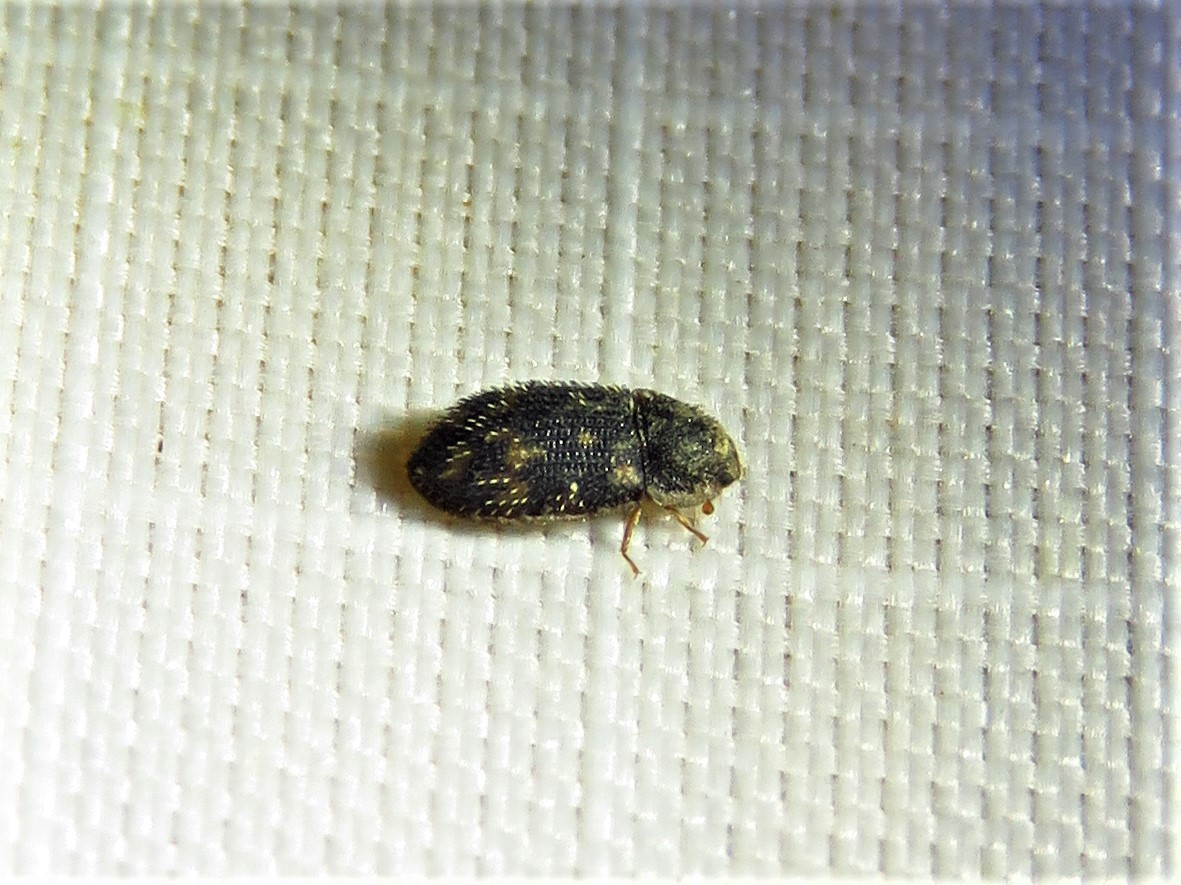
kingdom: Animalia
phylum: Arthropoda
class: Insecta
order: Coleoptera
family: Zopheridae
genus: Eucicones
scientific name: Eucicones marginalis
